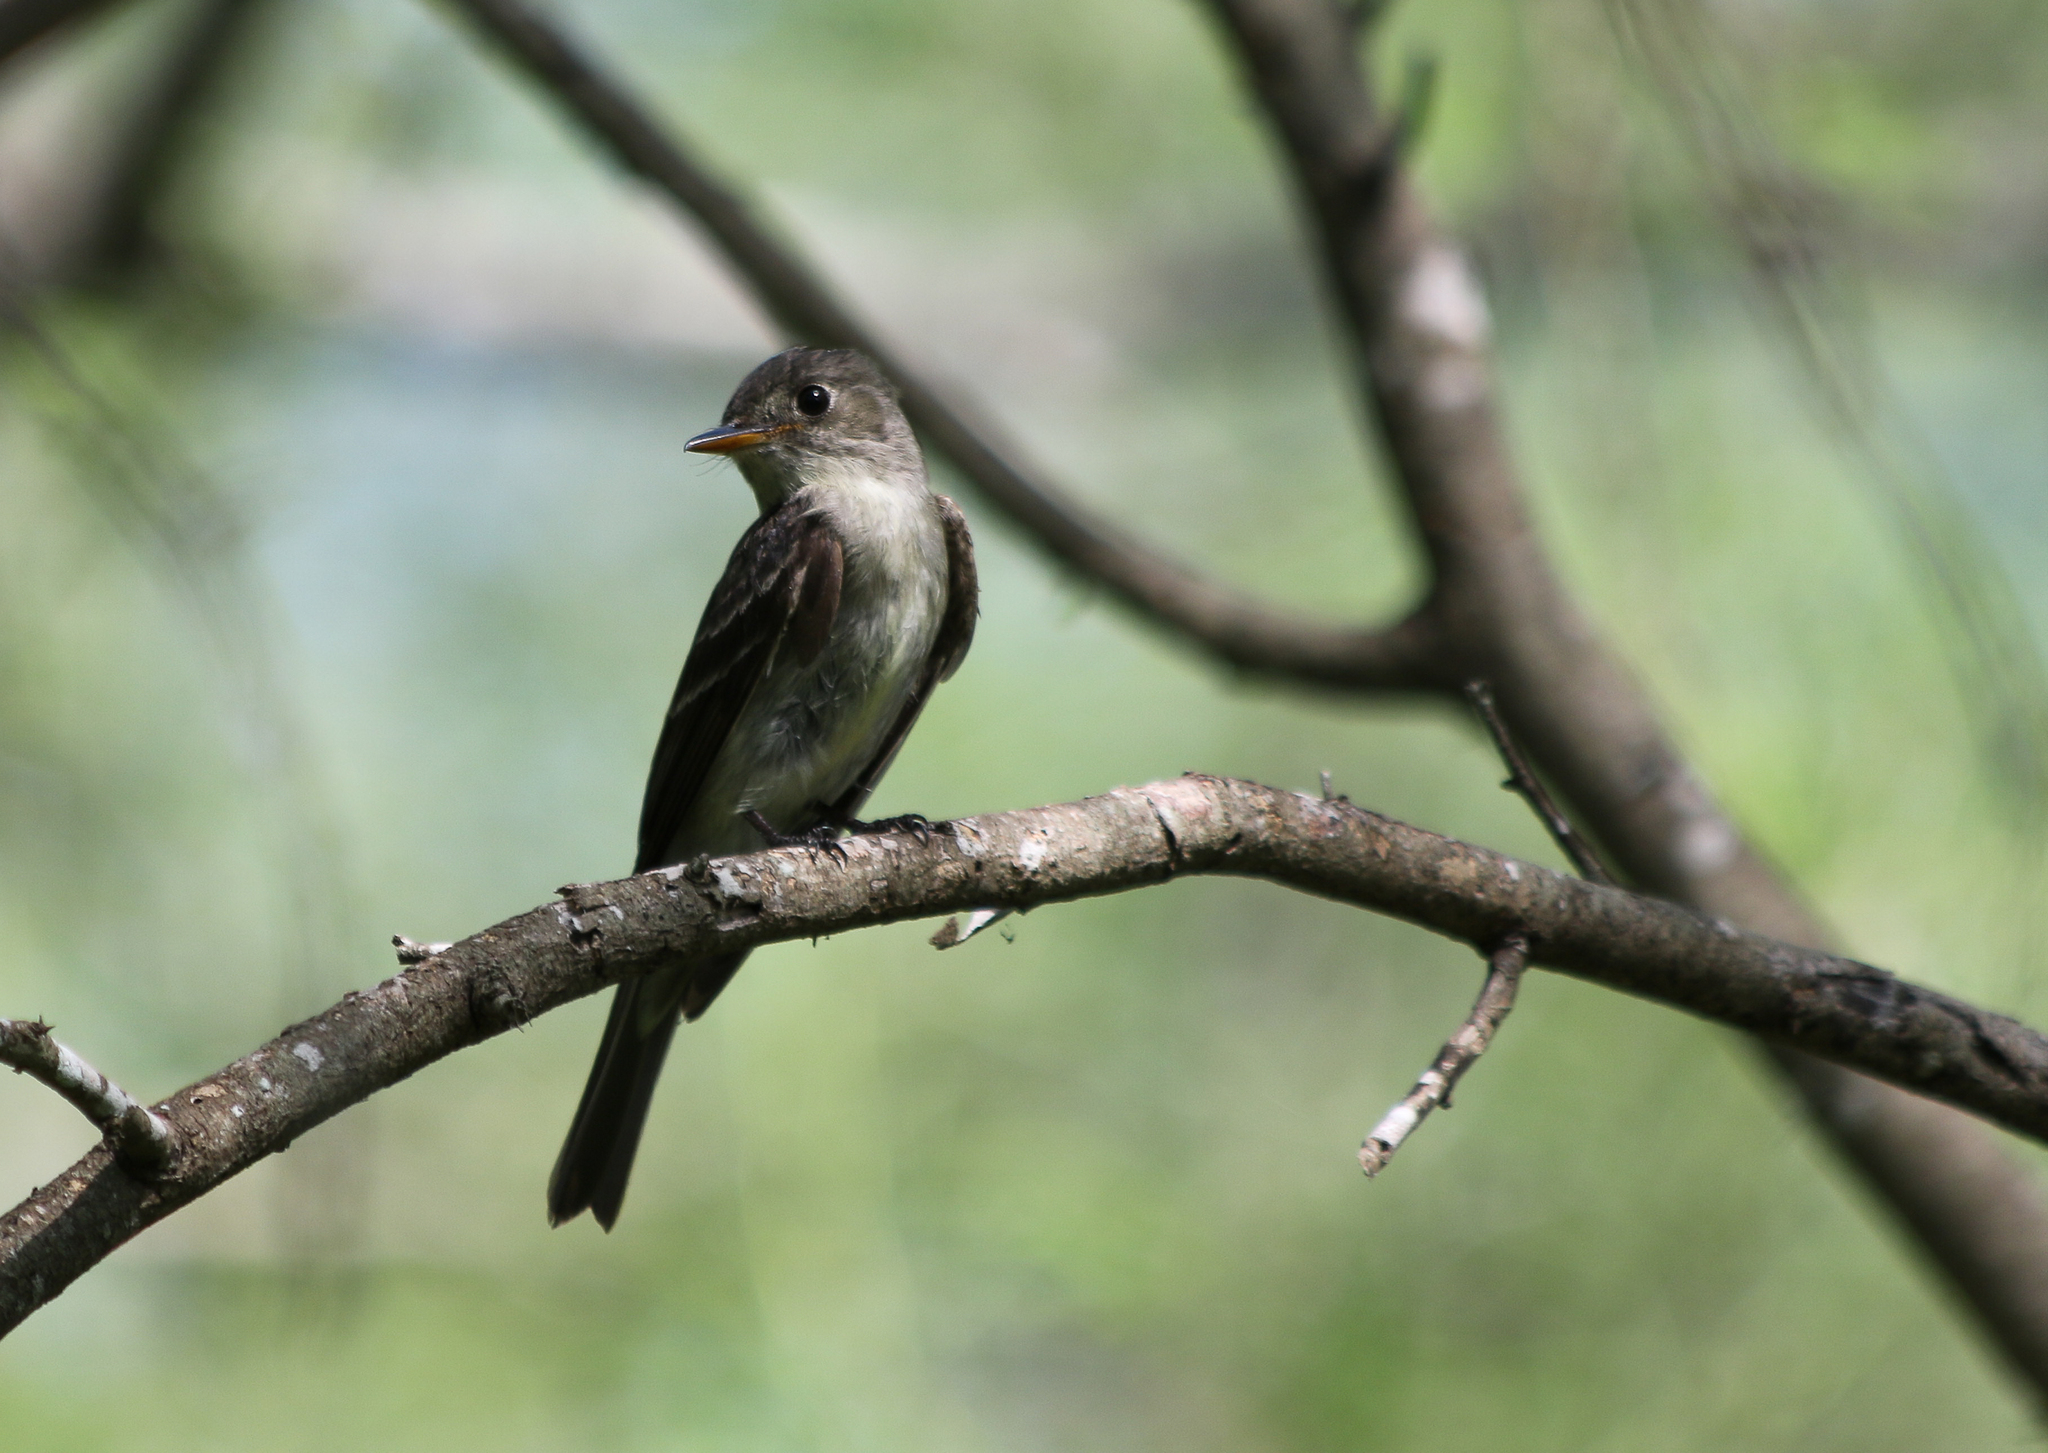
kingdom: Animalia
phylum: Chordata
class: Aves
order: Passeriformes
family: Tyrannidae
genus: Contopus
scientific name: Contopus virens
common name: Eastern wood-pewee
